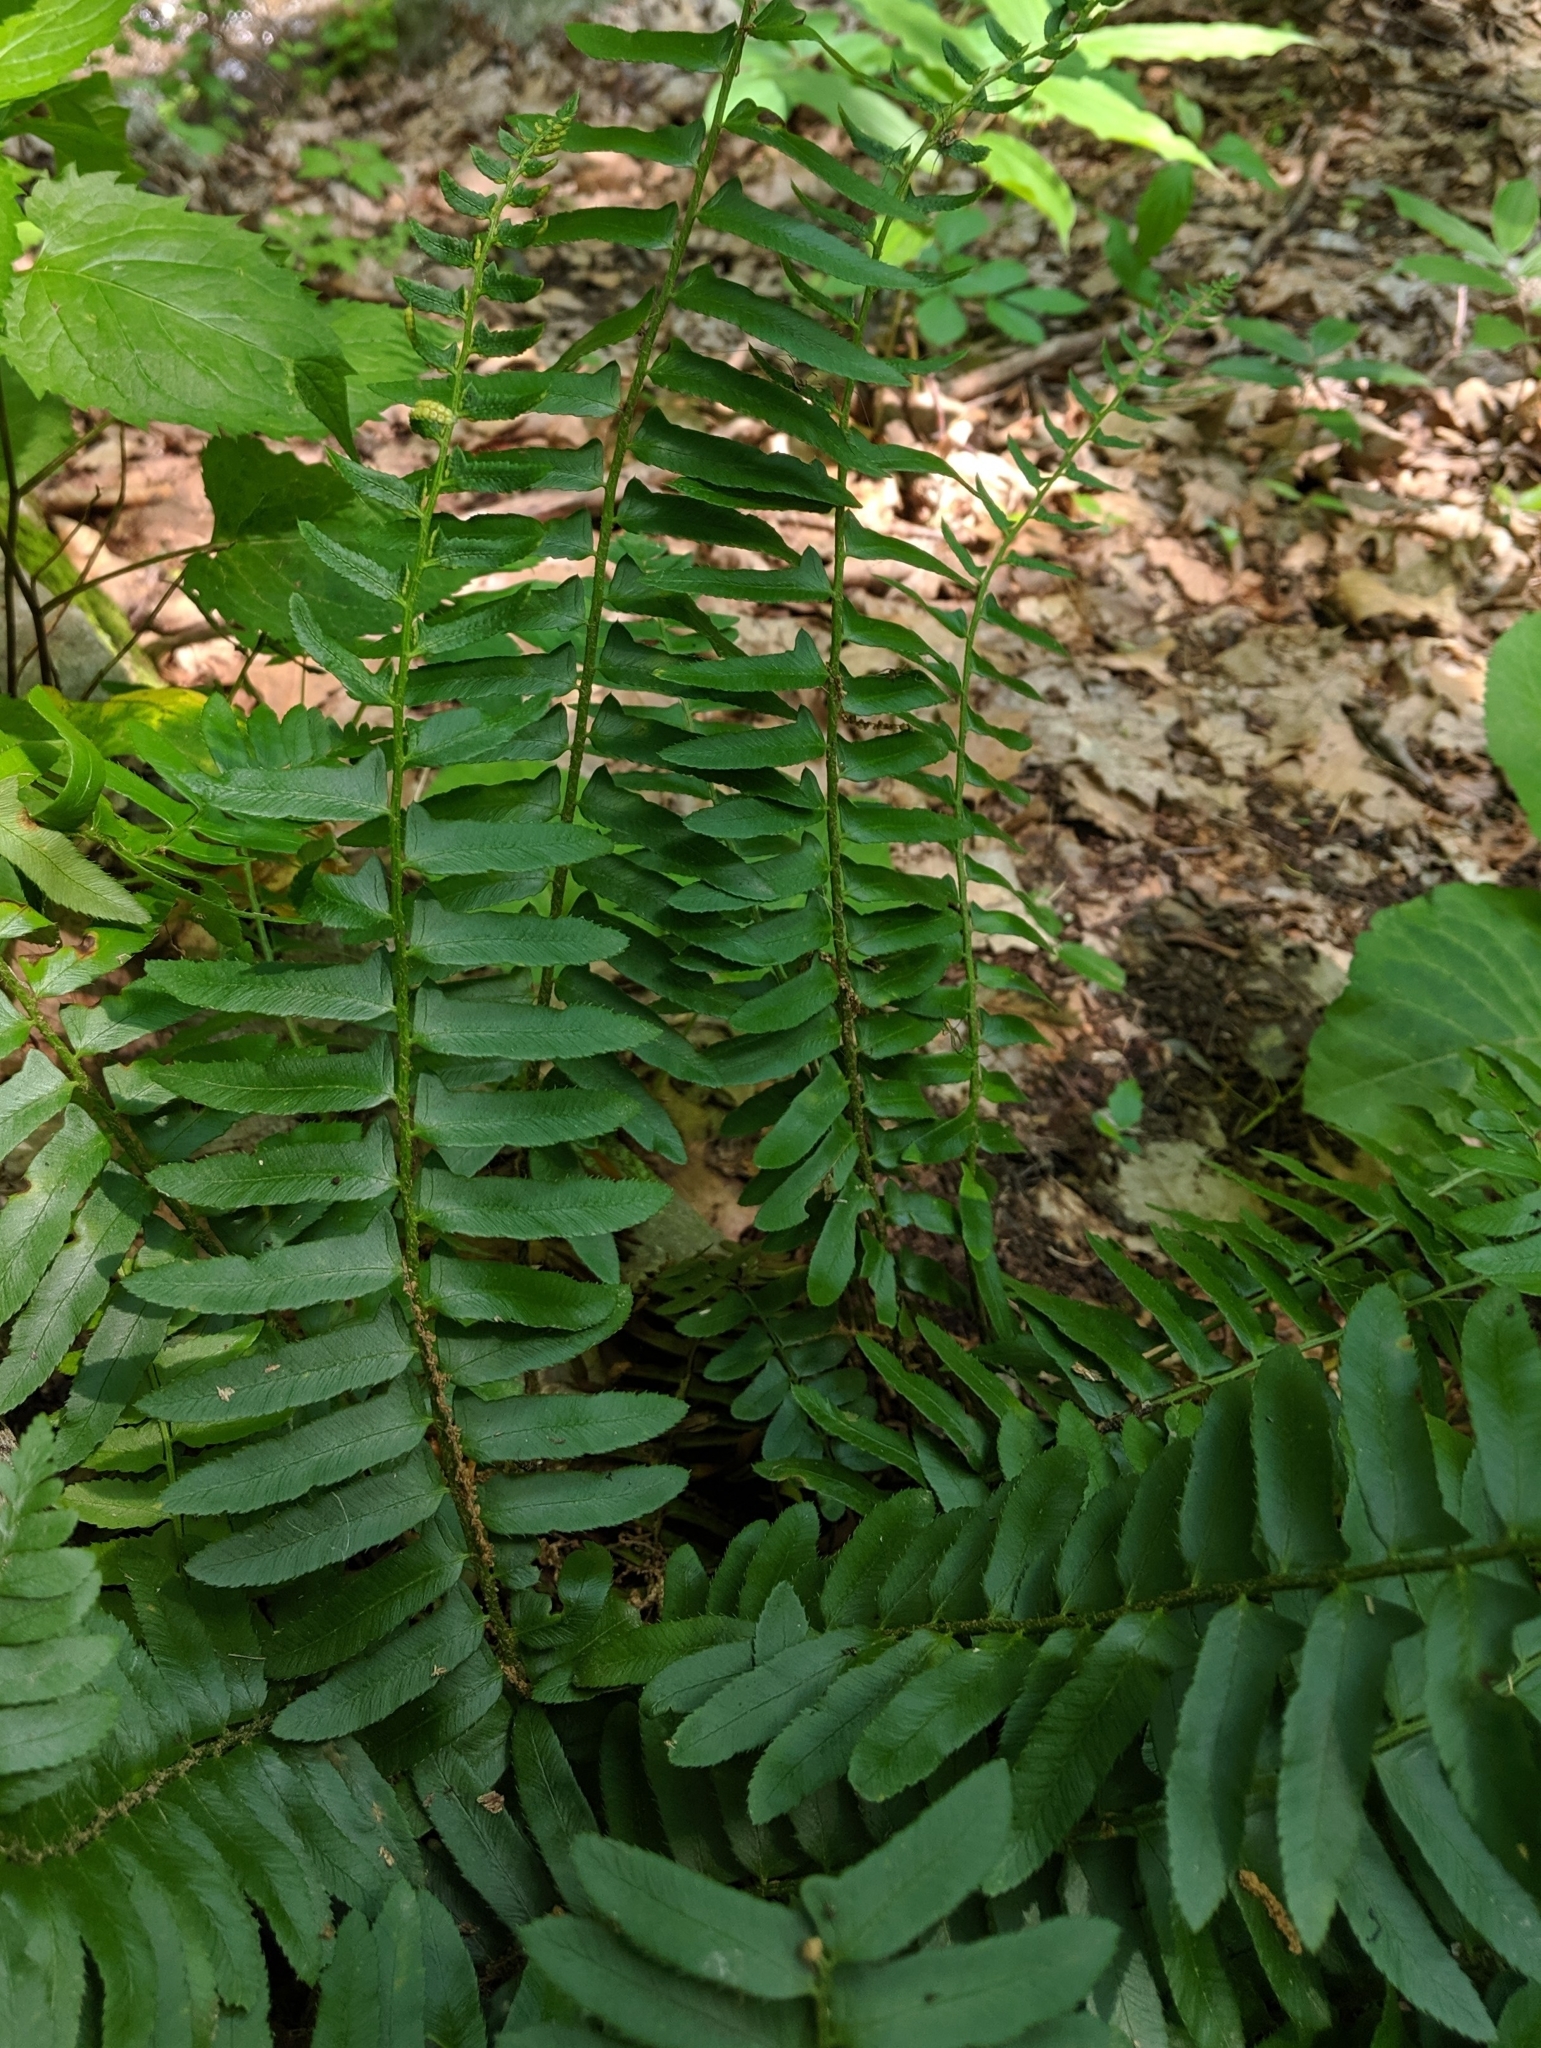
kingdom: Plantae
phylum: Tracheophyta
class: Polypodiopsida
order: Polypodiales
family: Dryopteridaceae
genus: Polystichum
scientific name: Polystichum acrostichoides
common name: Christmas fern
